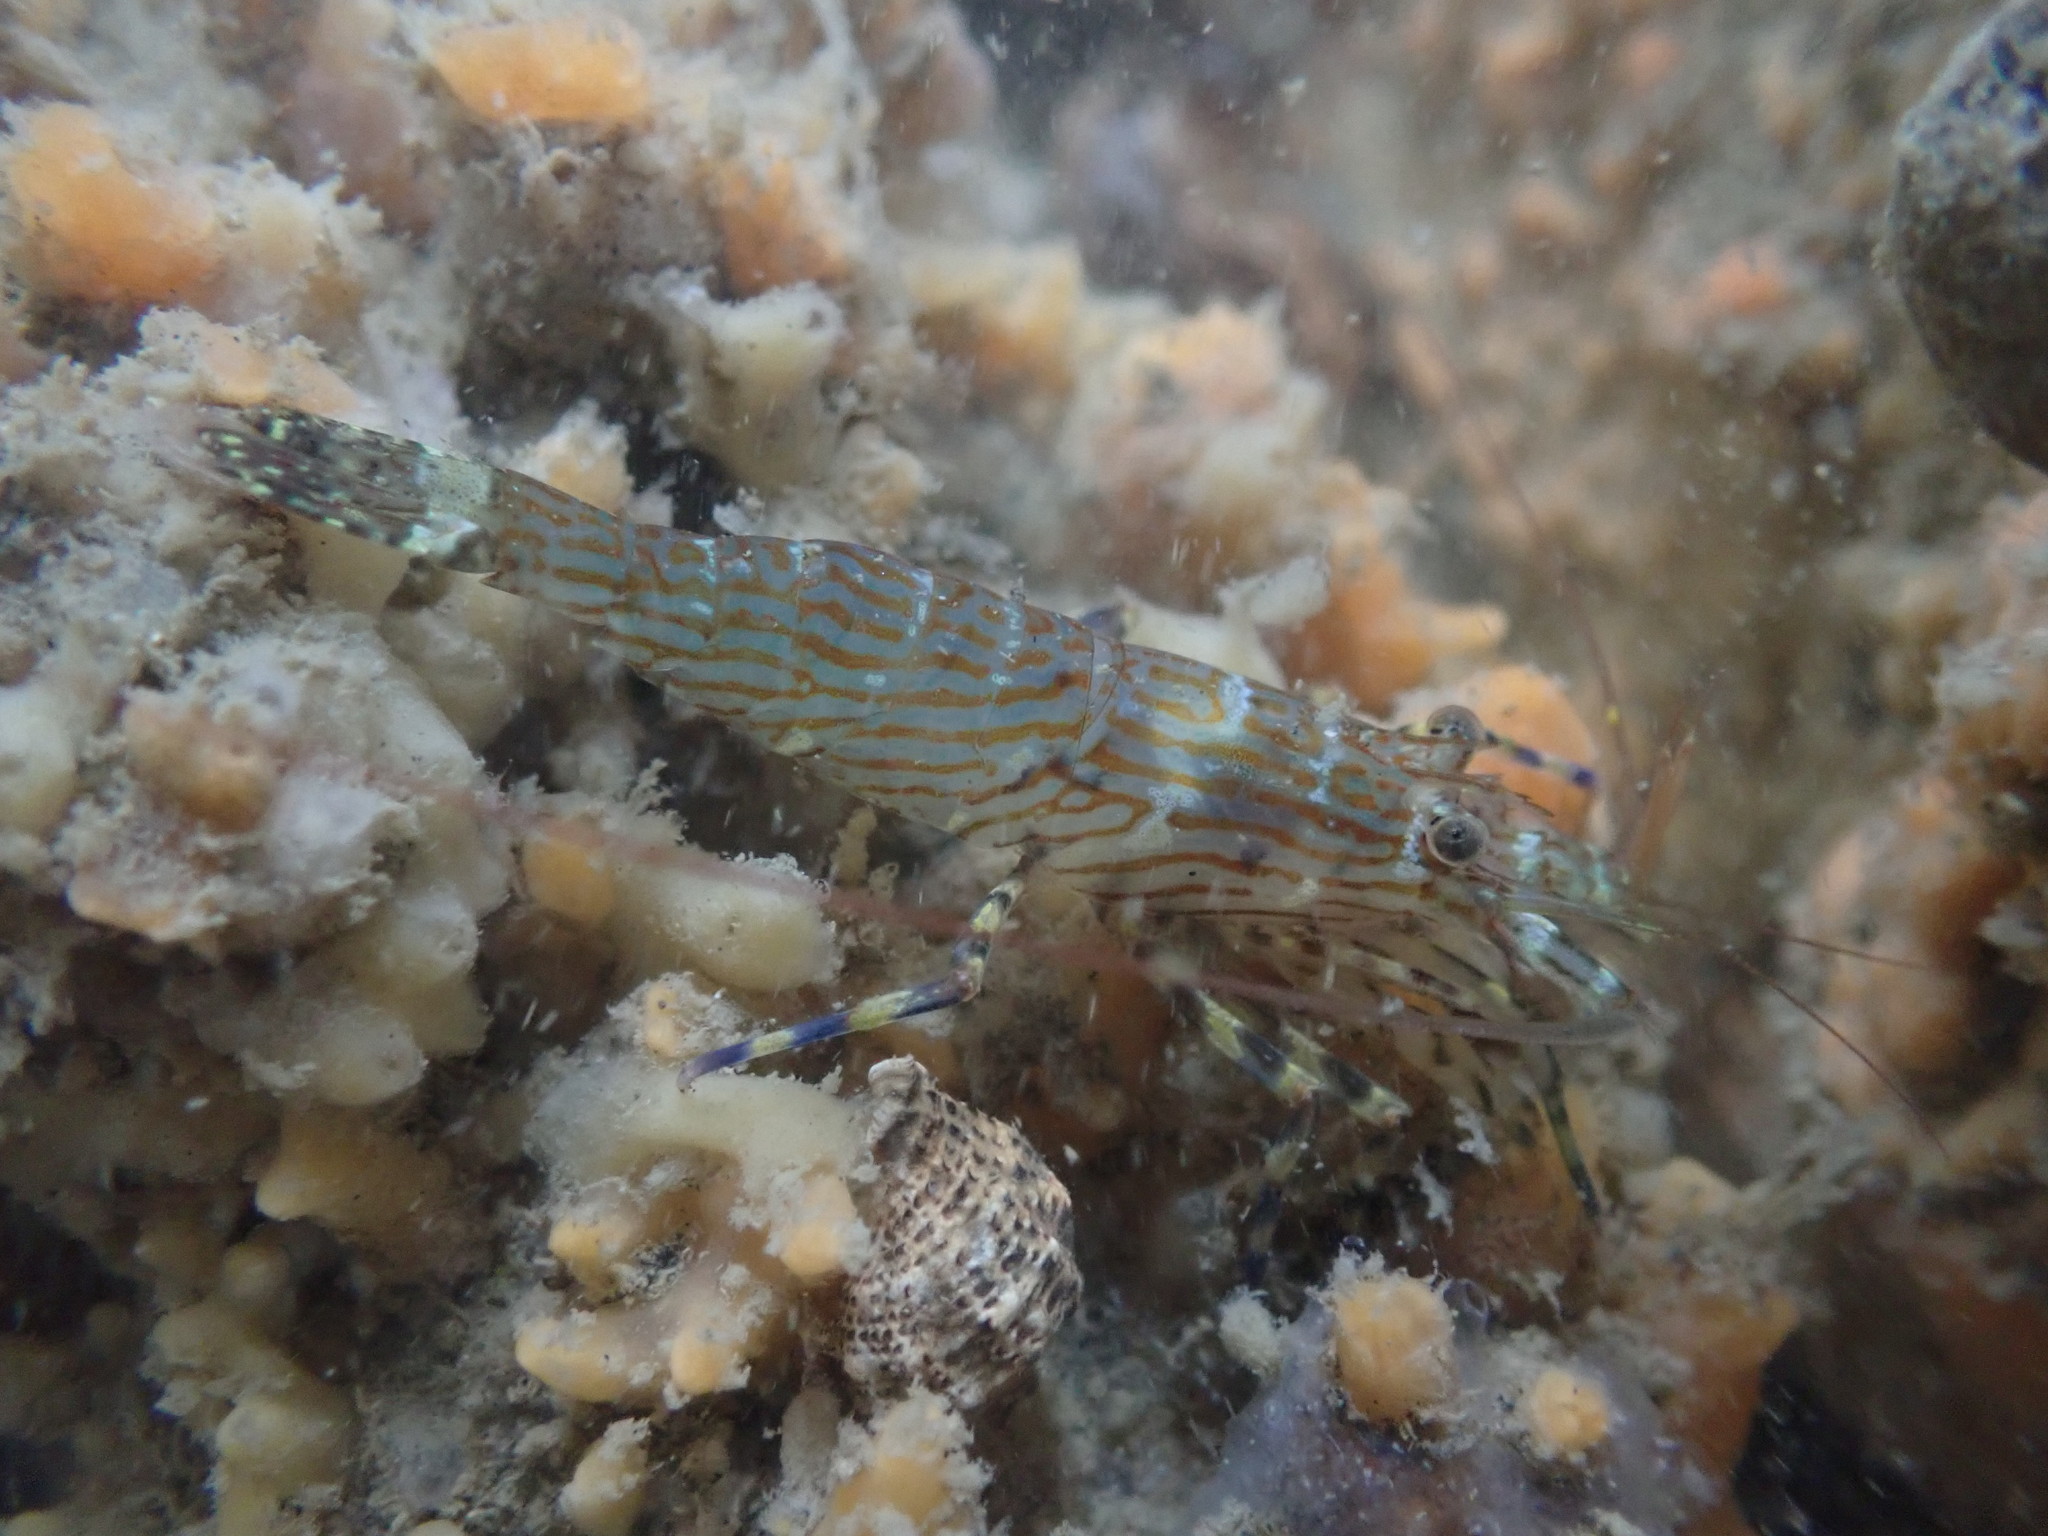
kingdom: Animalia
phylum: Arthropoda
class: Malacostraca
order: Decapoda
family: Hippolytidae
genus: Alope
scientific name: Alope spinifrons
